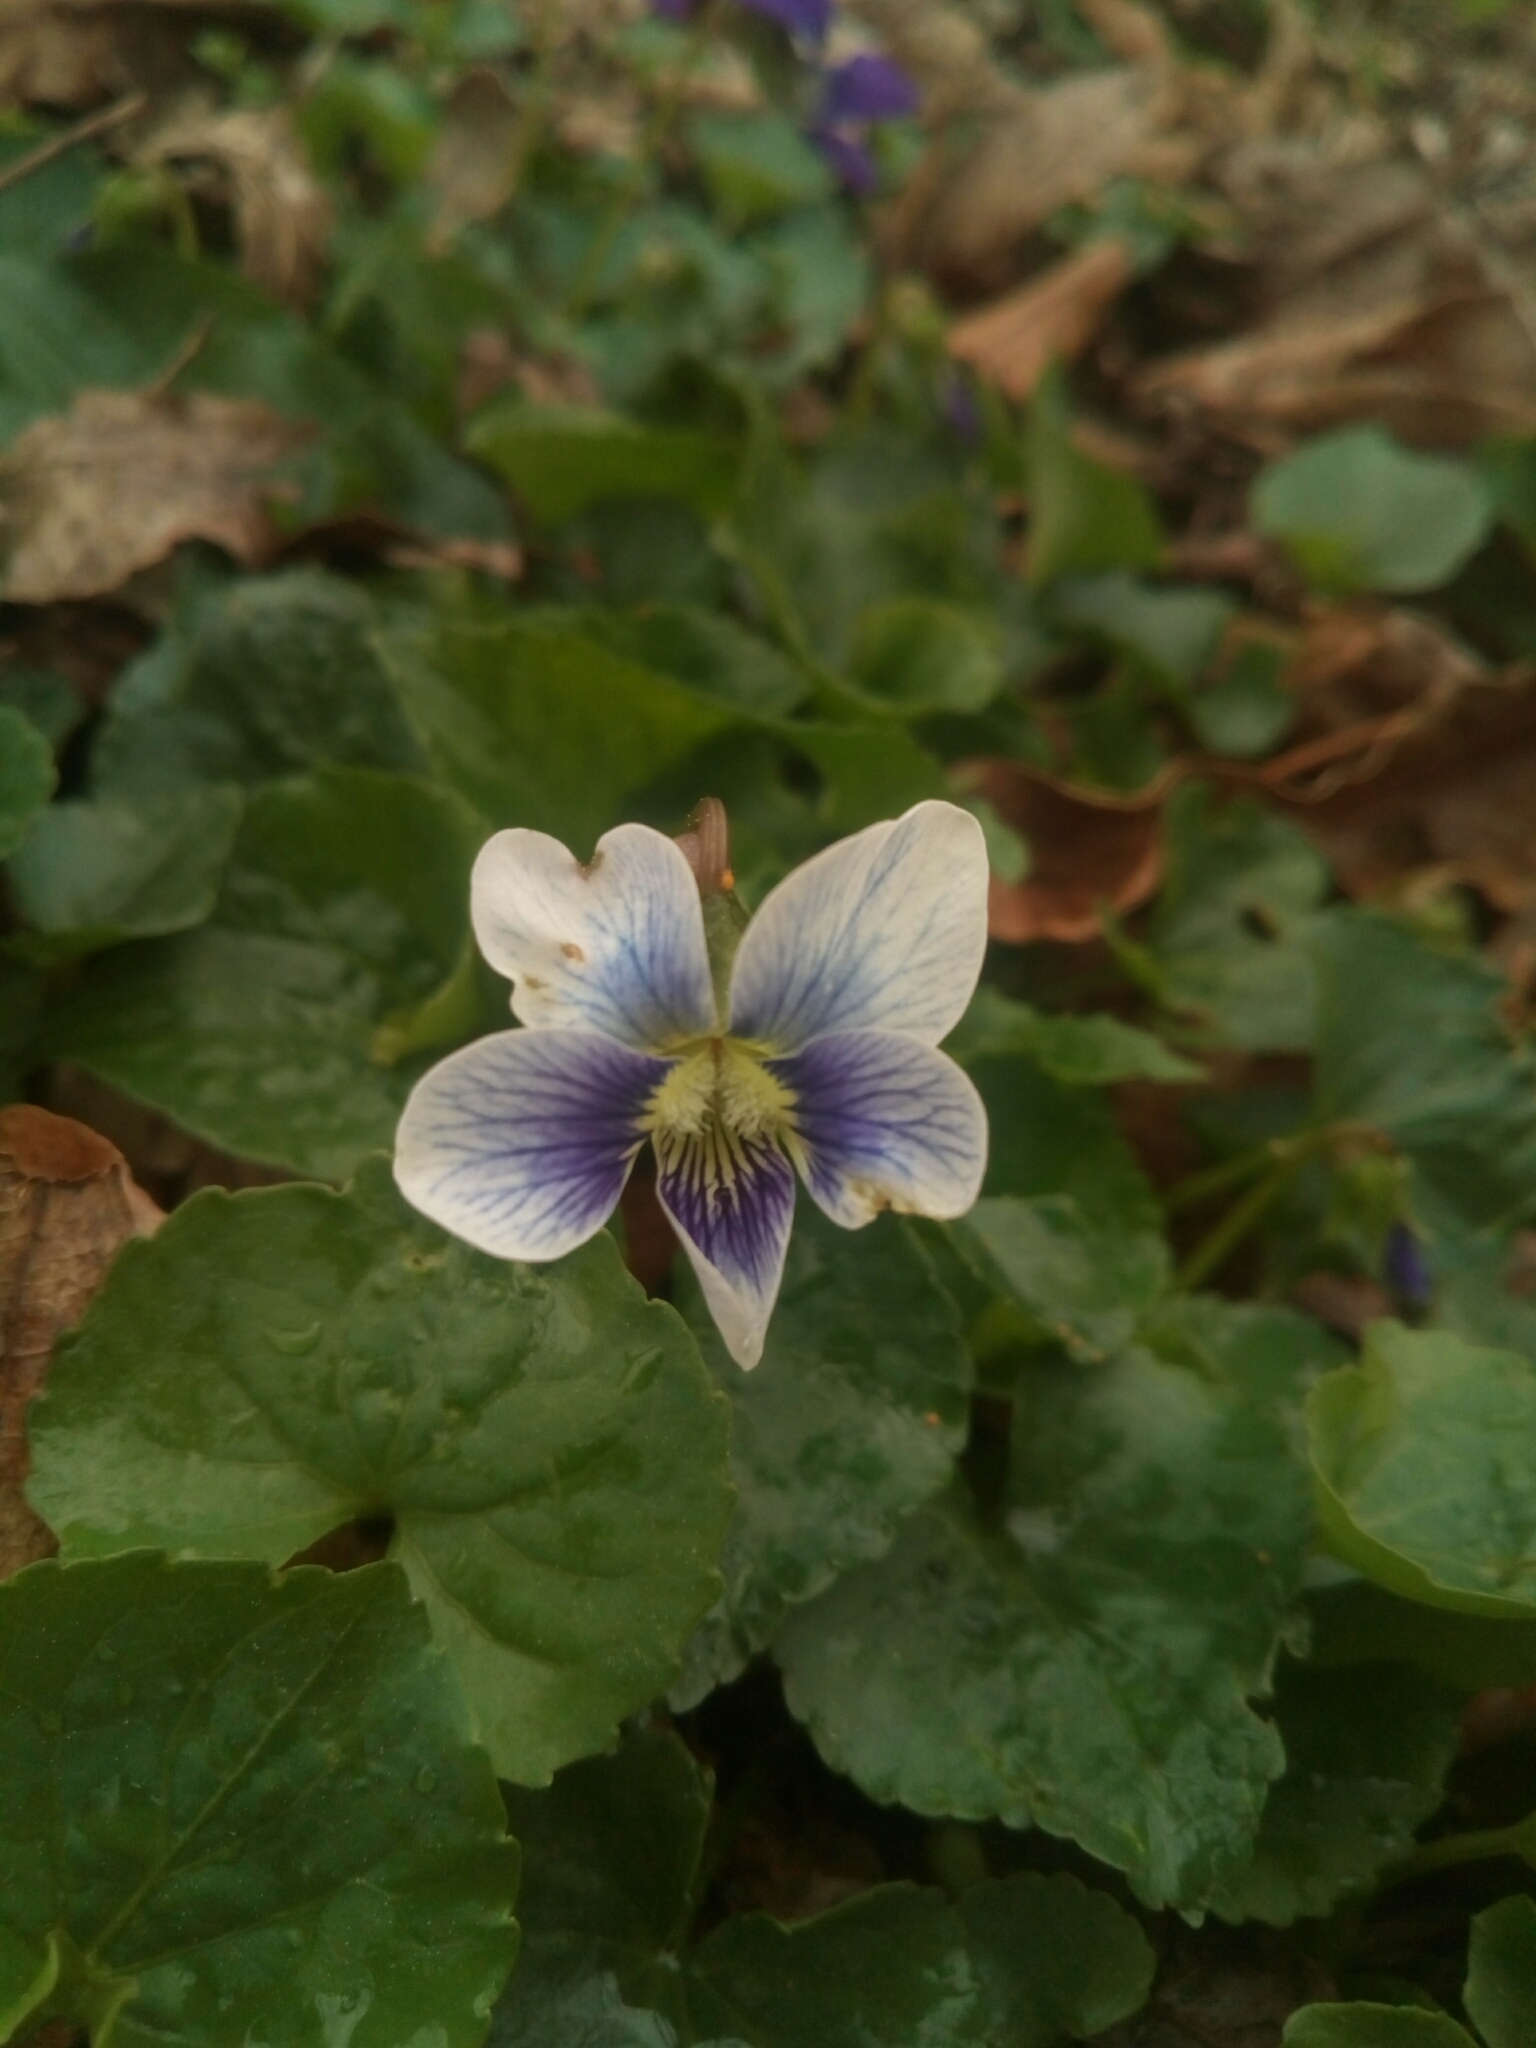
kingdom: Plantae
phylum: Tracheophyta
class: Magnoliopsida
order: Malpighiales
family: Violaceae
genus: Viola
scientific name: Viola sororia
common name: Dooryard violet
